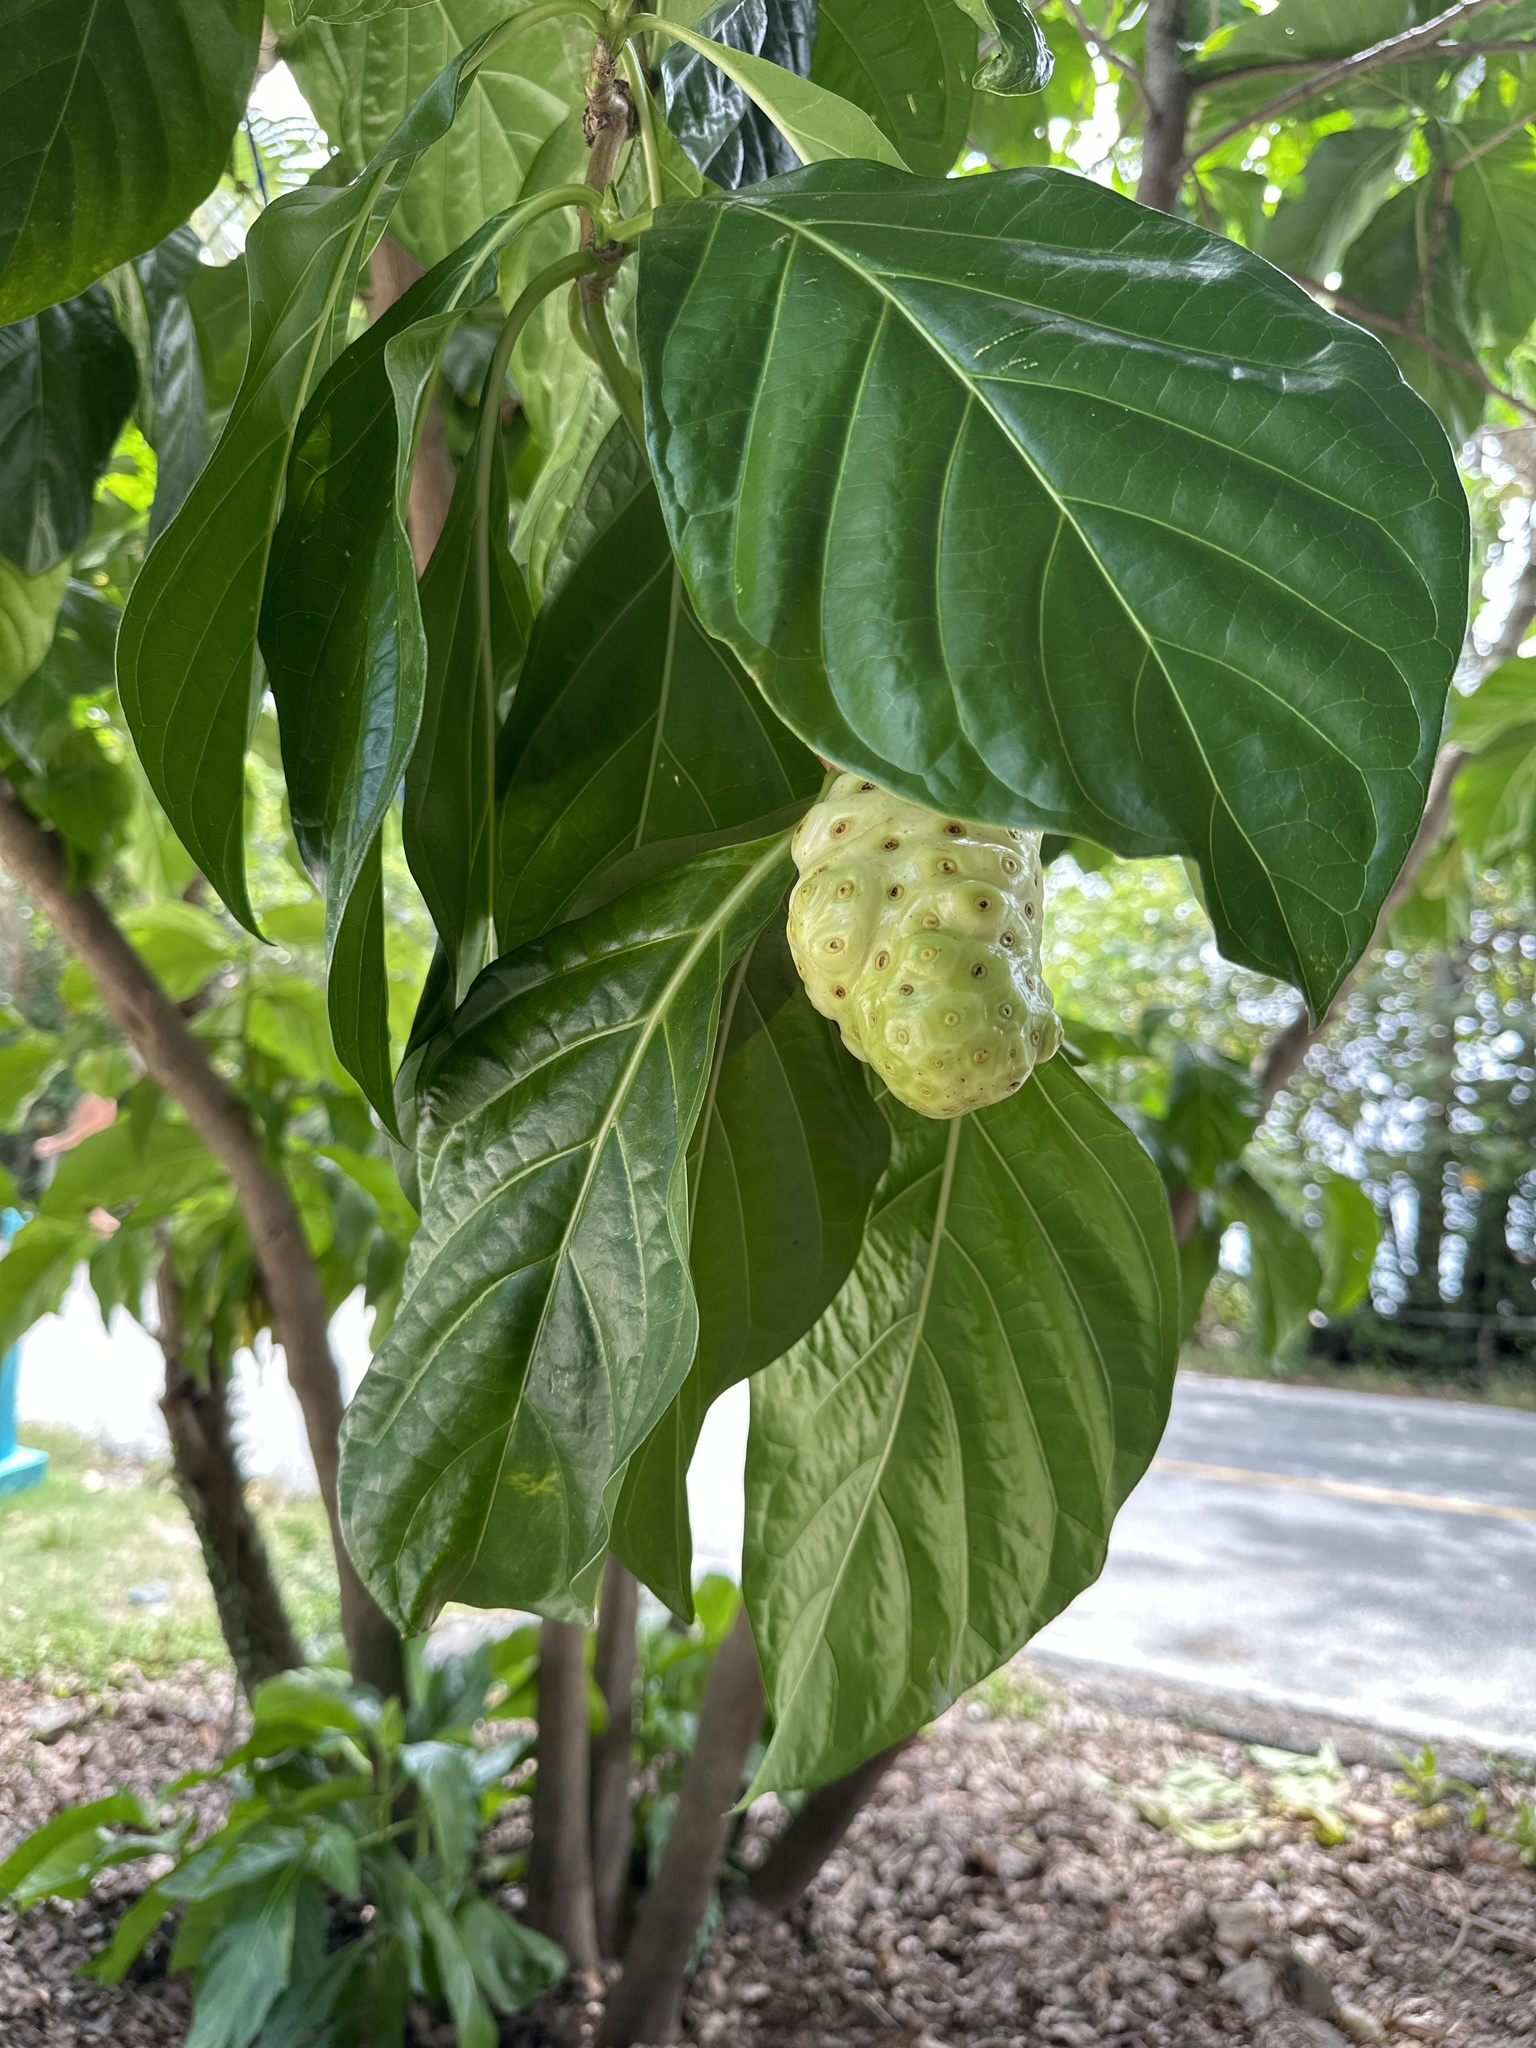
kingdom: Plantae
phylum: Tracheophyta
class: Magnoliopsida
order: Gentianales
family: Rubiaceae
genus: Morinda
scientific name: Morinda citrifolia
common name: Indian-mulberry
